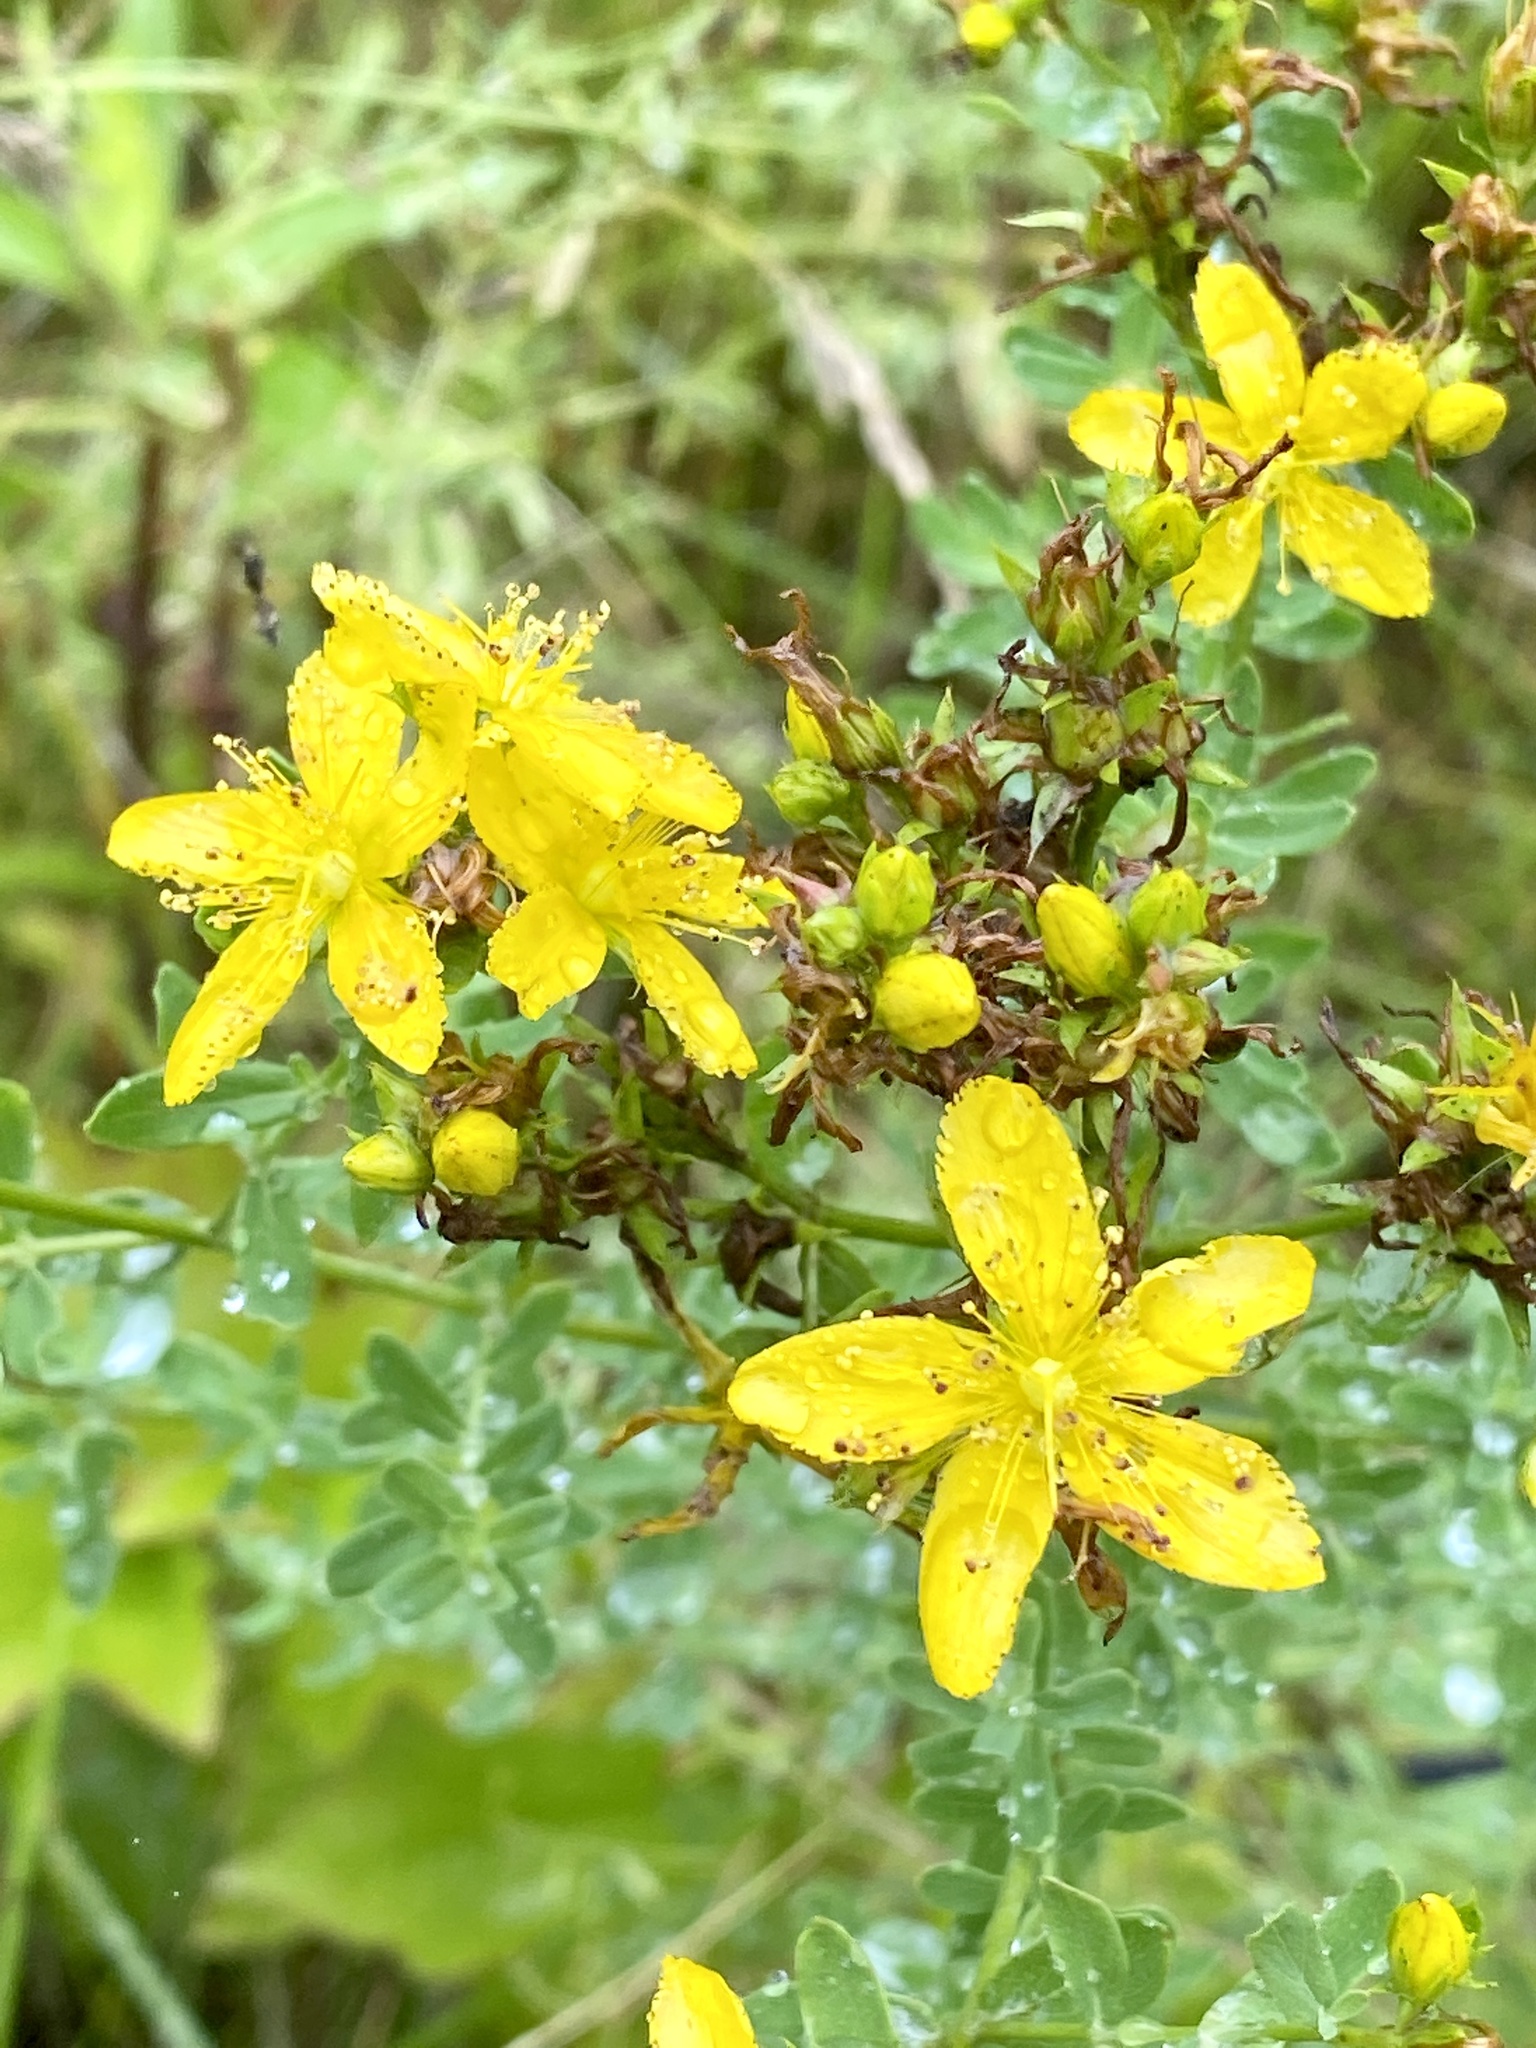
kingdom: Plantae
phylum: Tracheophyta
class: Magnoliopsida
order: Malpighiales
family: Hypericaceae
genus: Hypericum
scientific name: Hypericum perforatum
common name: Common st. johnswort
